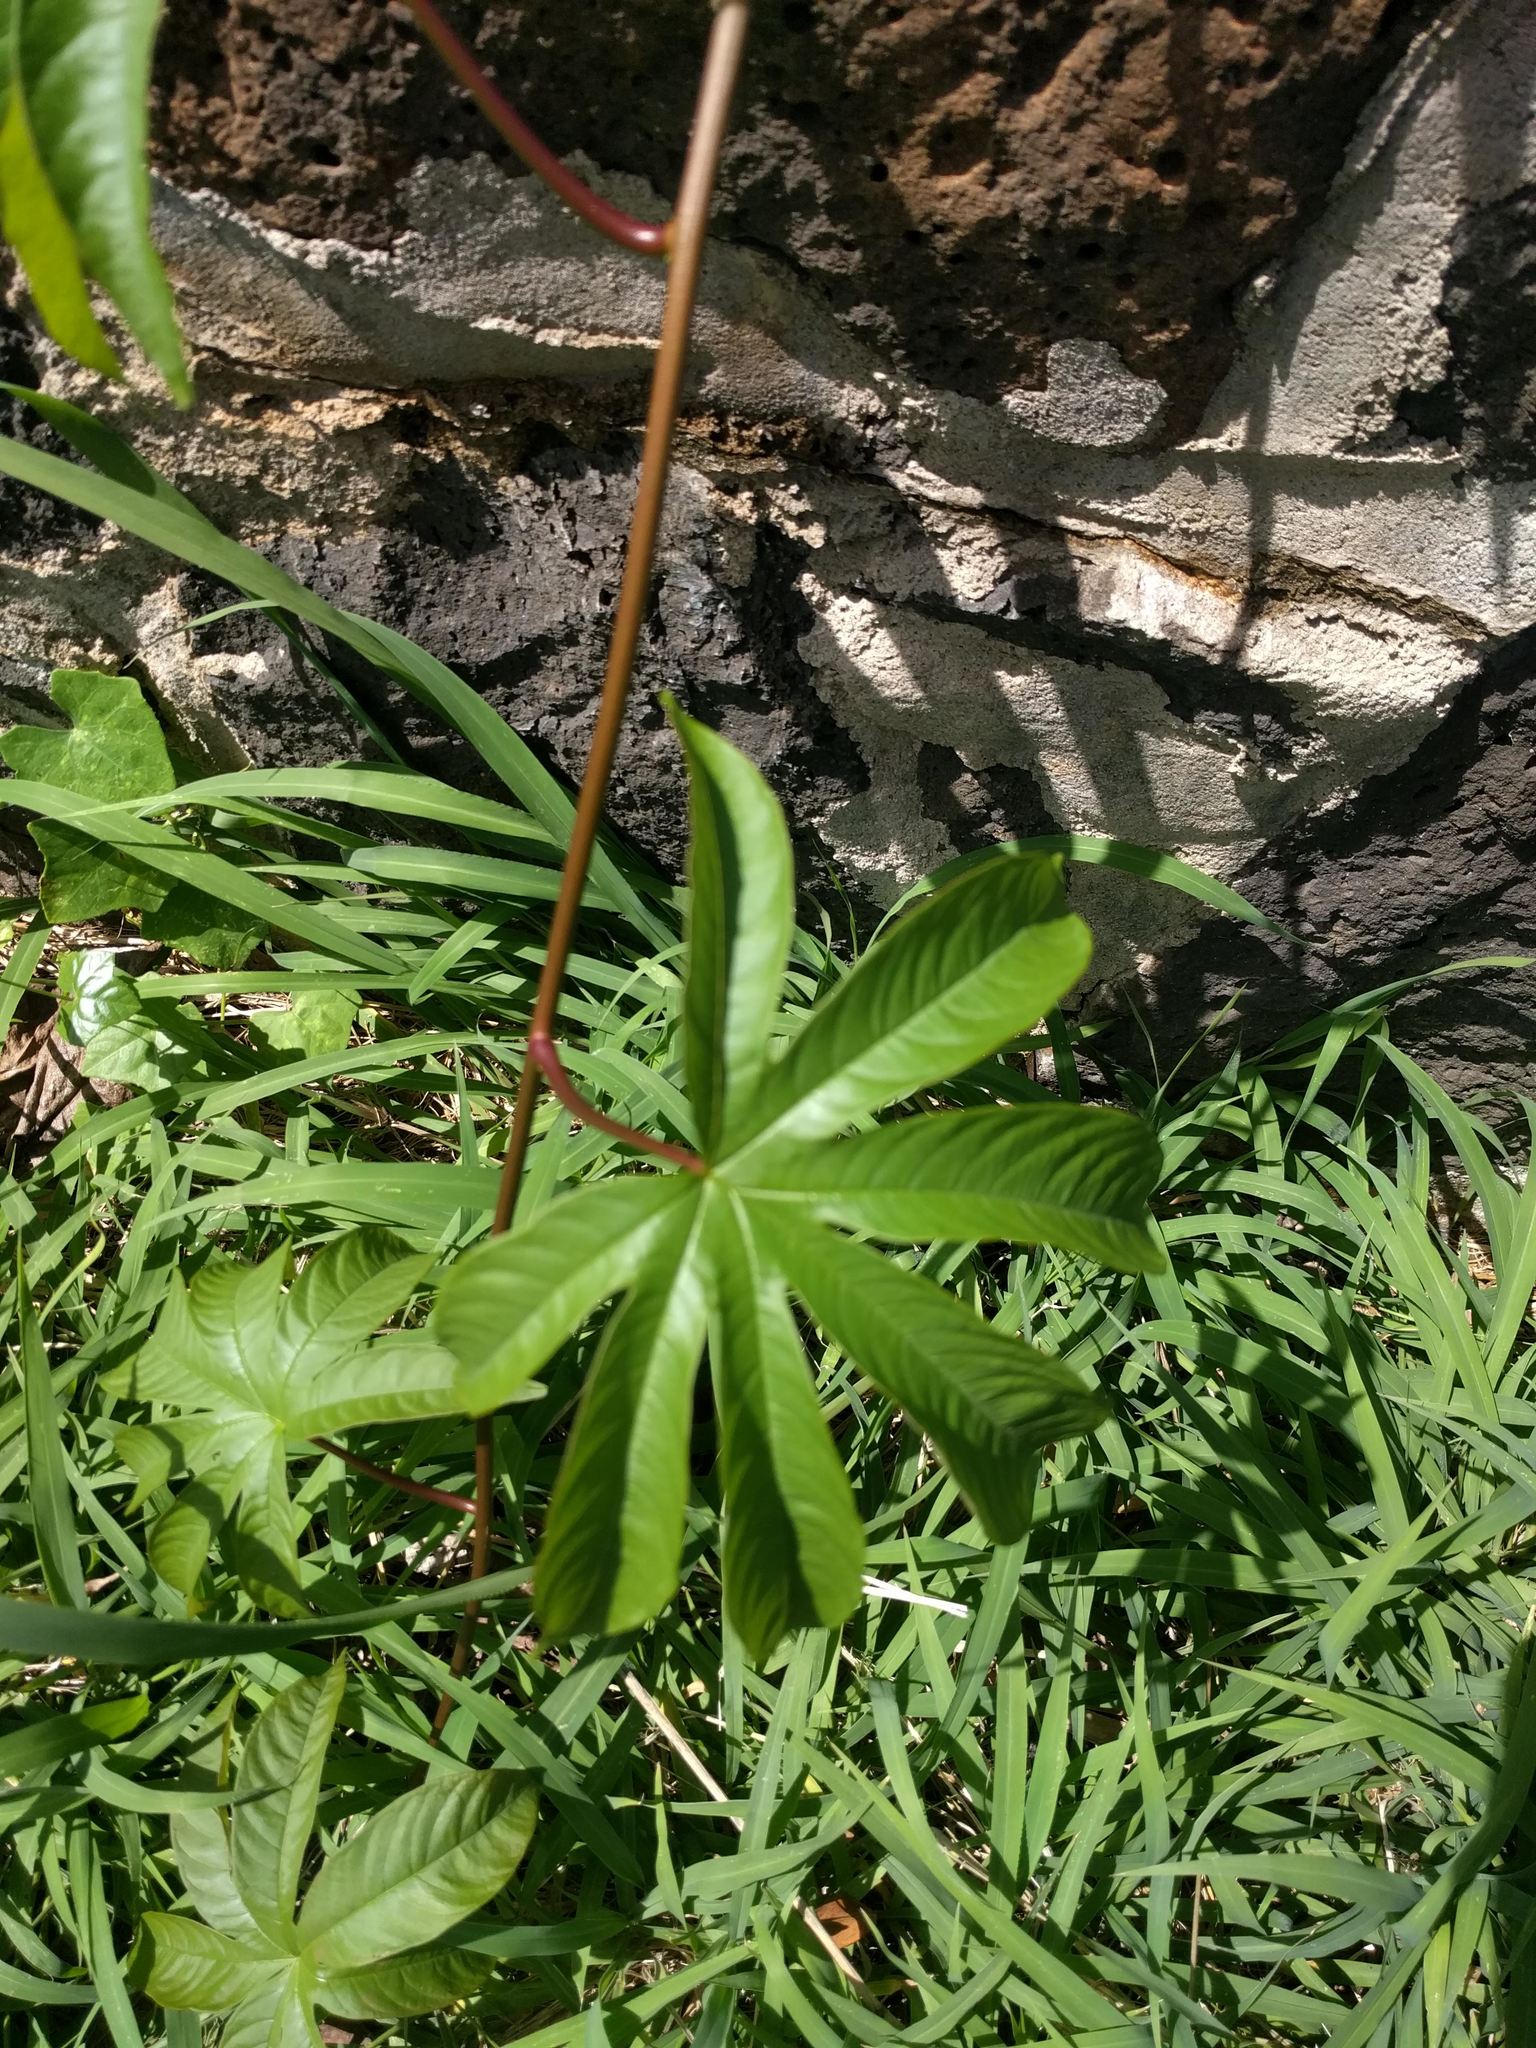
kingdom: Plantae
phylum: Tracheophyta
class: Magnoliopsida
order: Solanales
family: Convolvulaceae
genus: Distimake
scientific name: Distimake tuberosus
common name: Spanish arborvine
